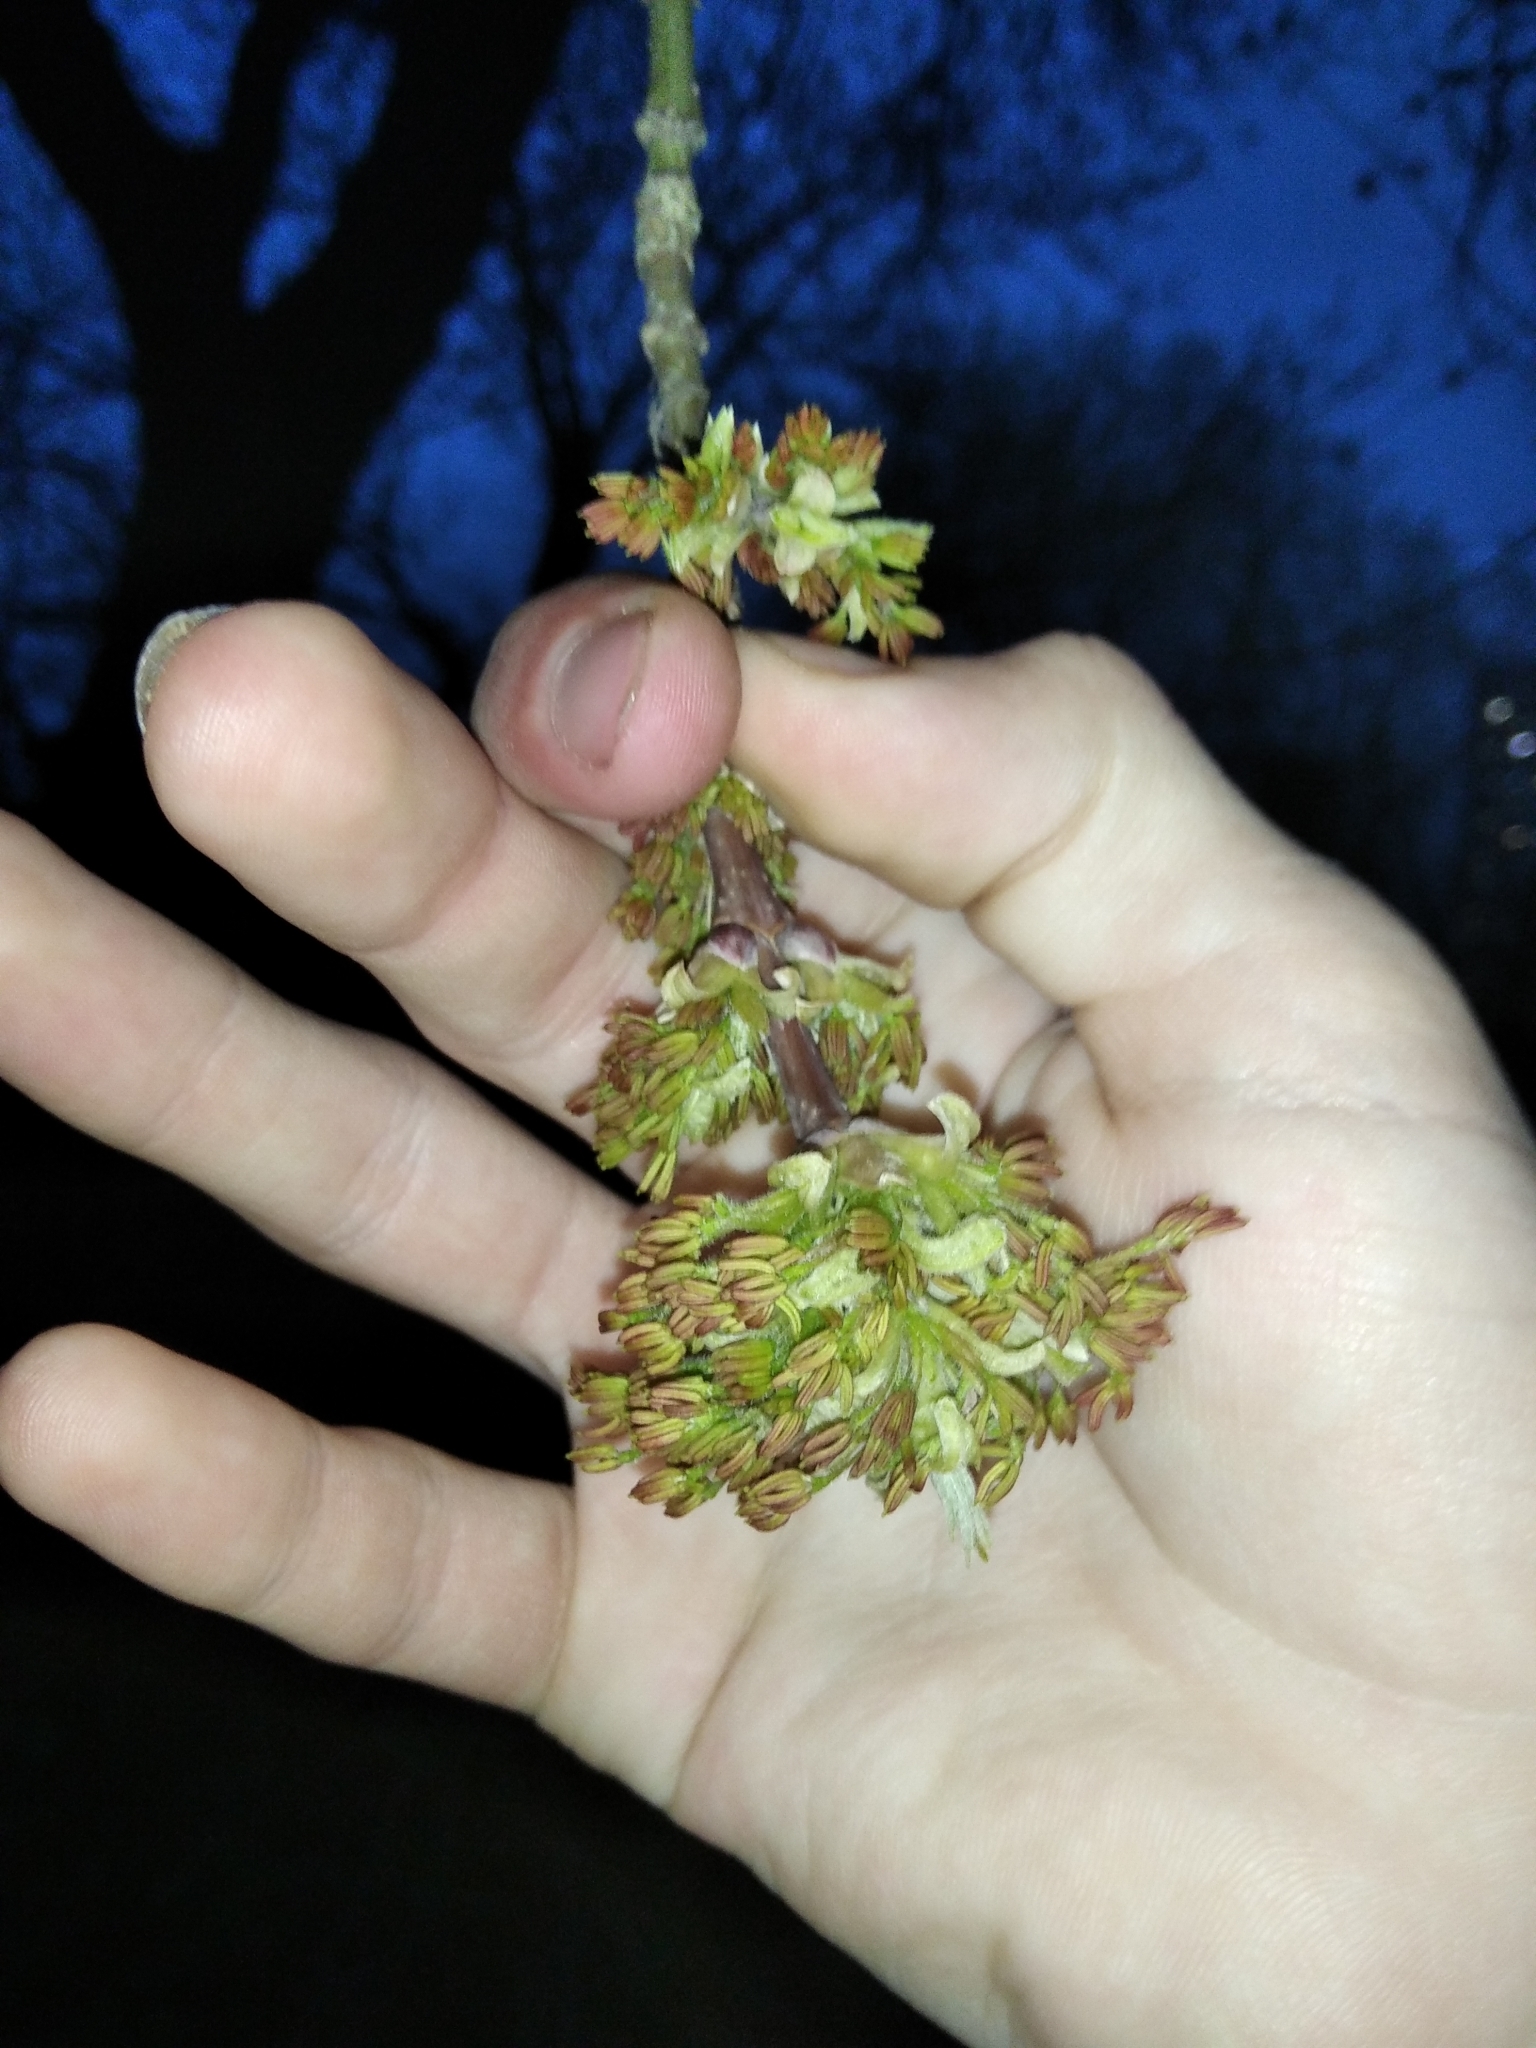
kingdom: Plantae
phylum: Tracheophyta
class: Magnoliopsida
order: Sapindales
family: Sapindaceae
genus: Acer
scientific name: Acer negundo
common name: Ashleaf maple
